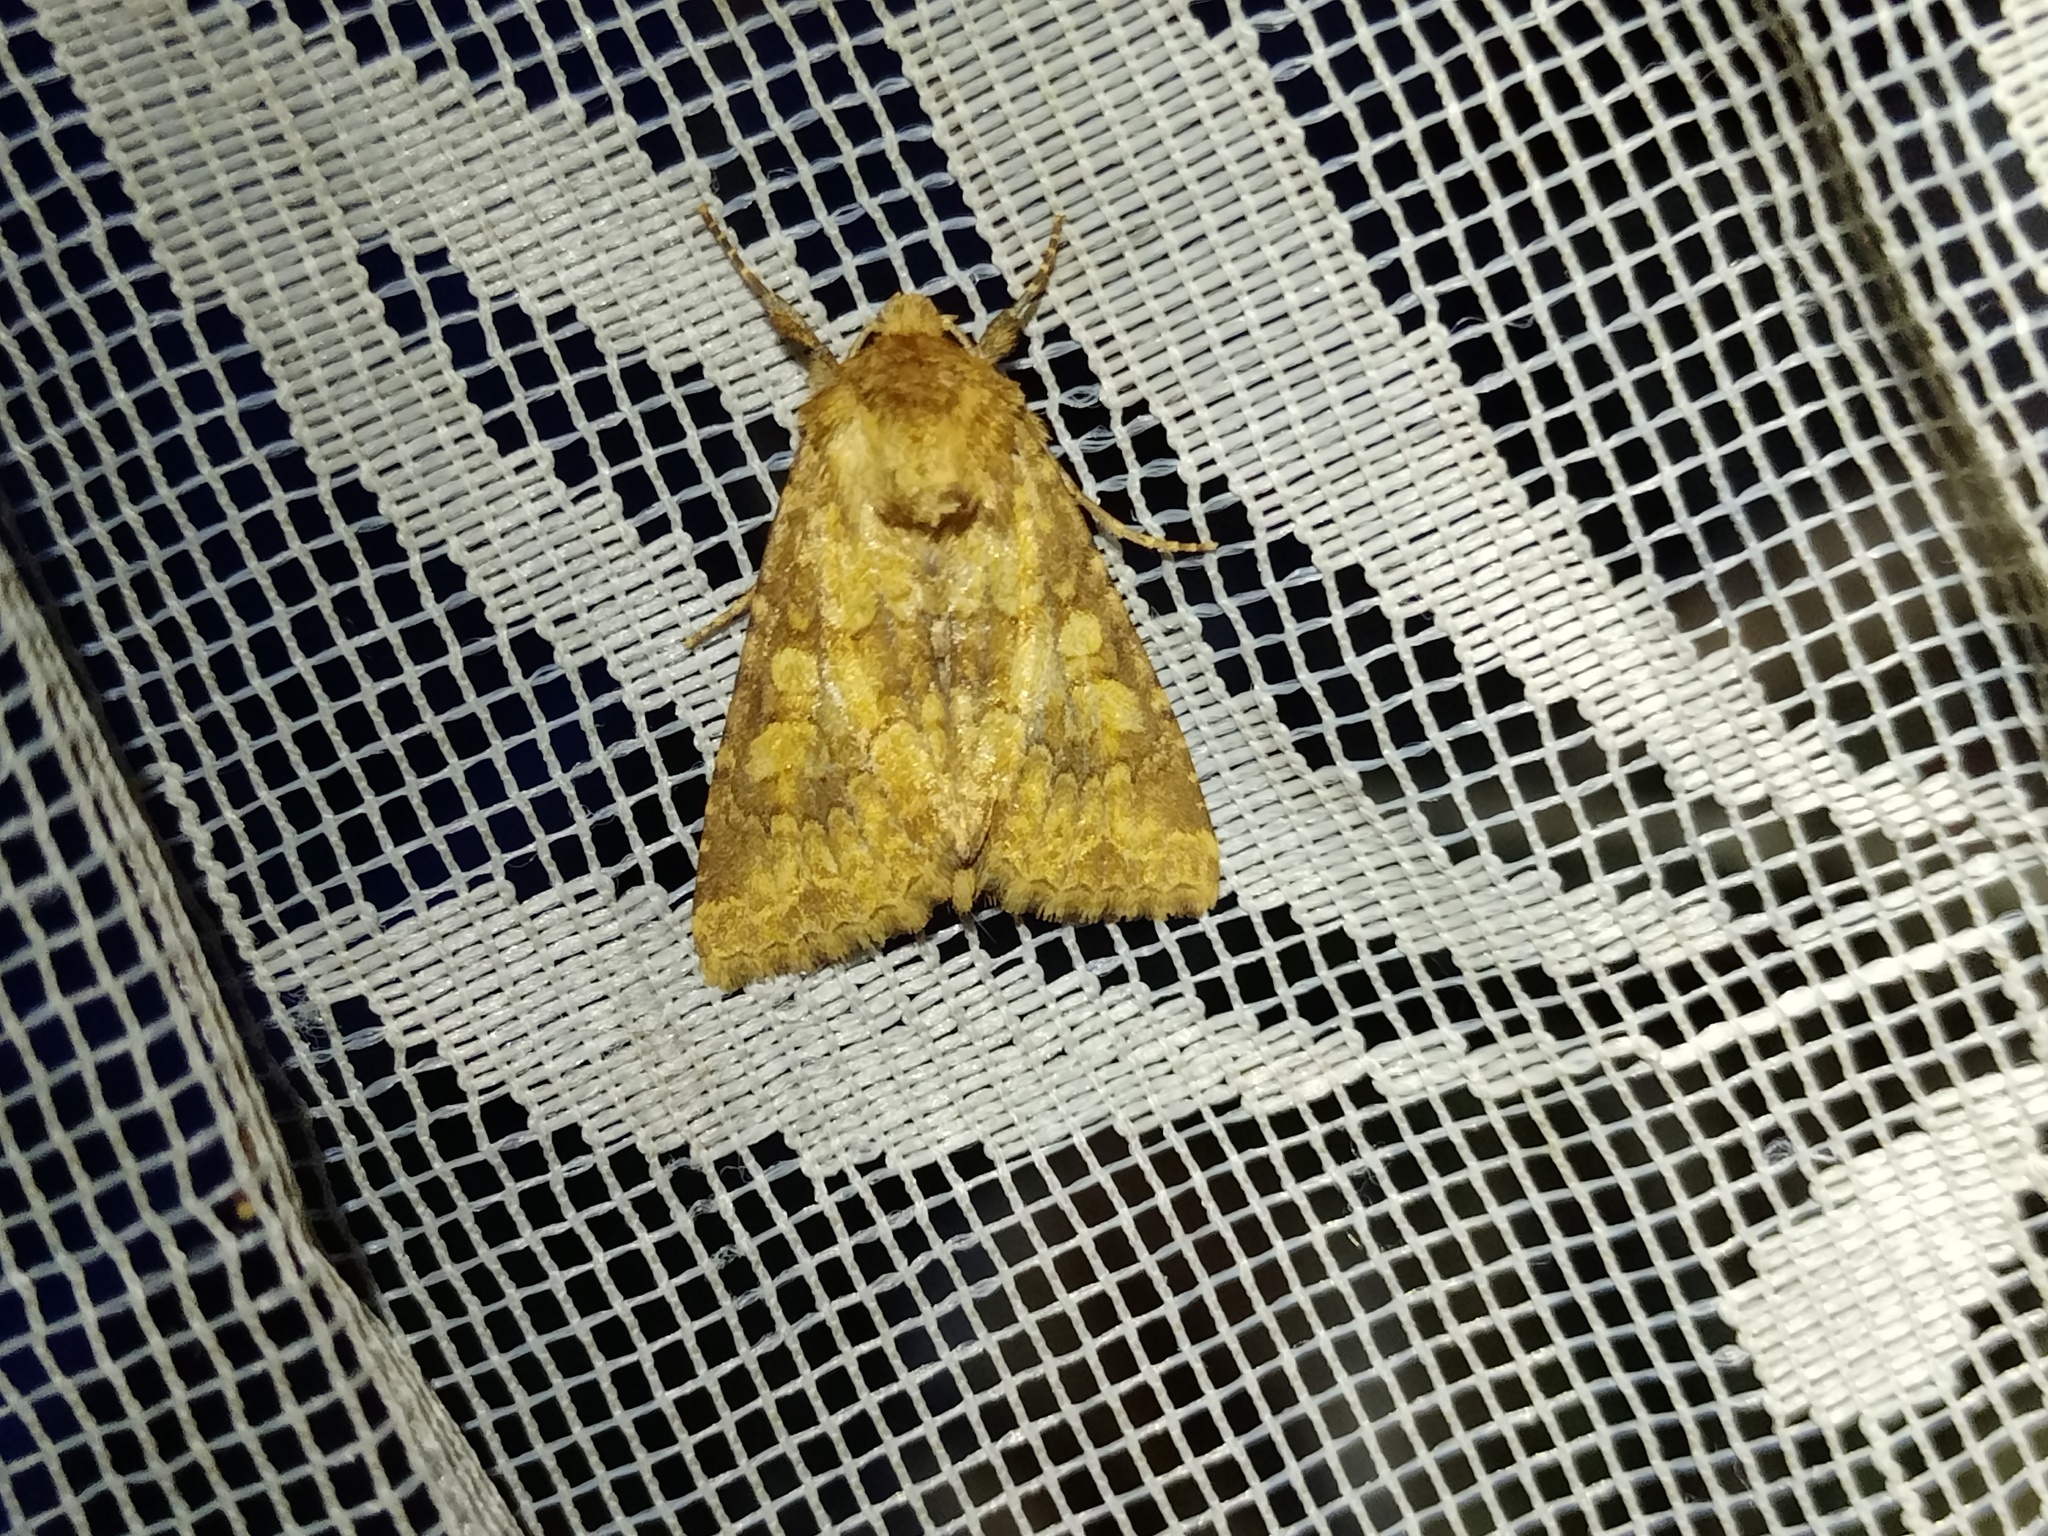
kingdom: Animalia
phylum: Arthropoda
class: Insecta
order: Lepidoptera
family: Noctuidae
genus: Conisania
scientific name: Conisania luteago
